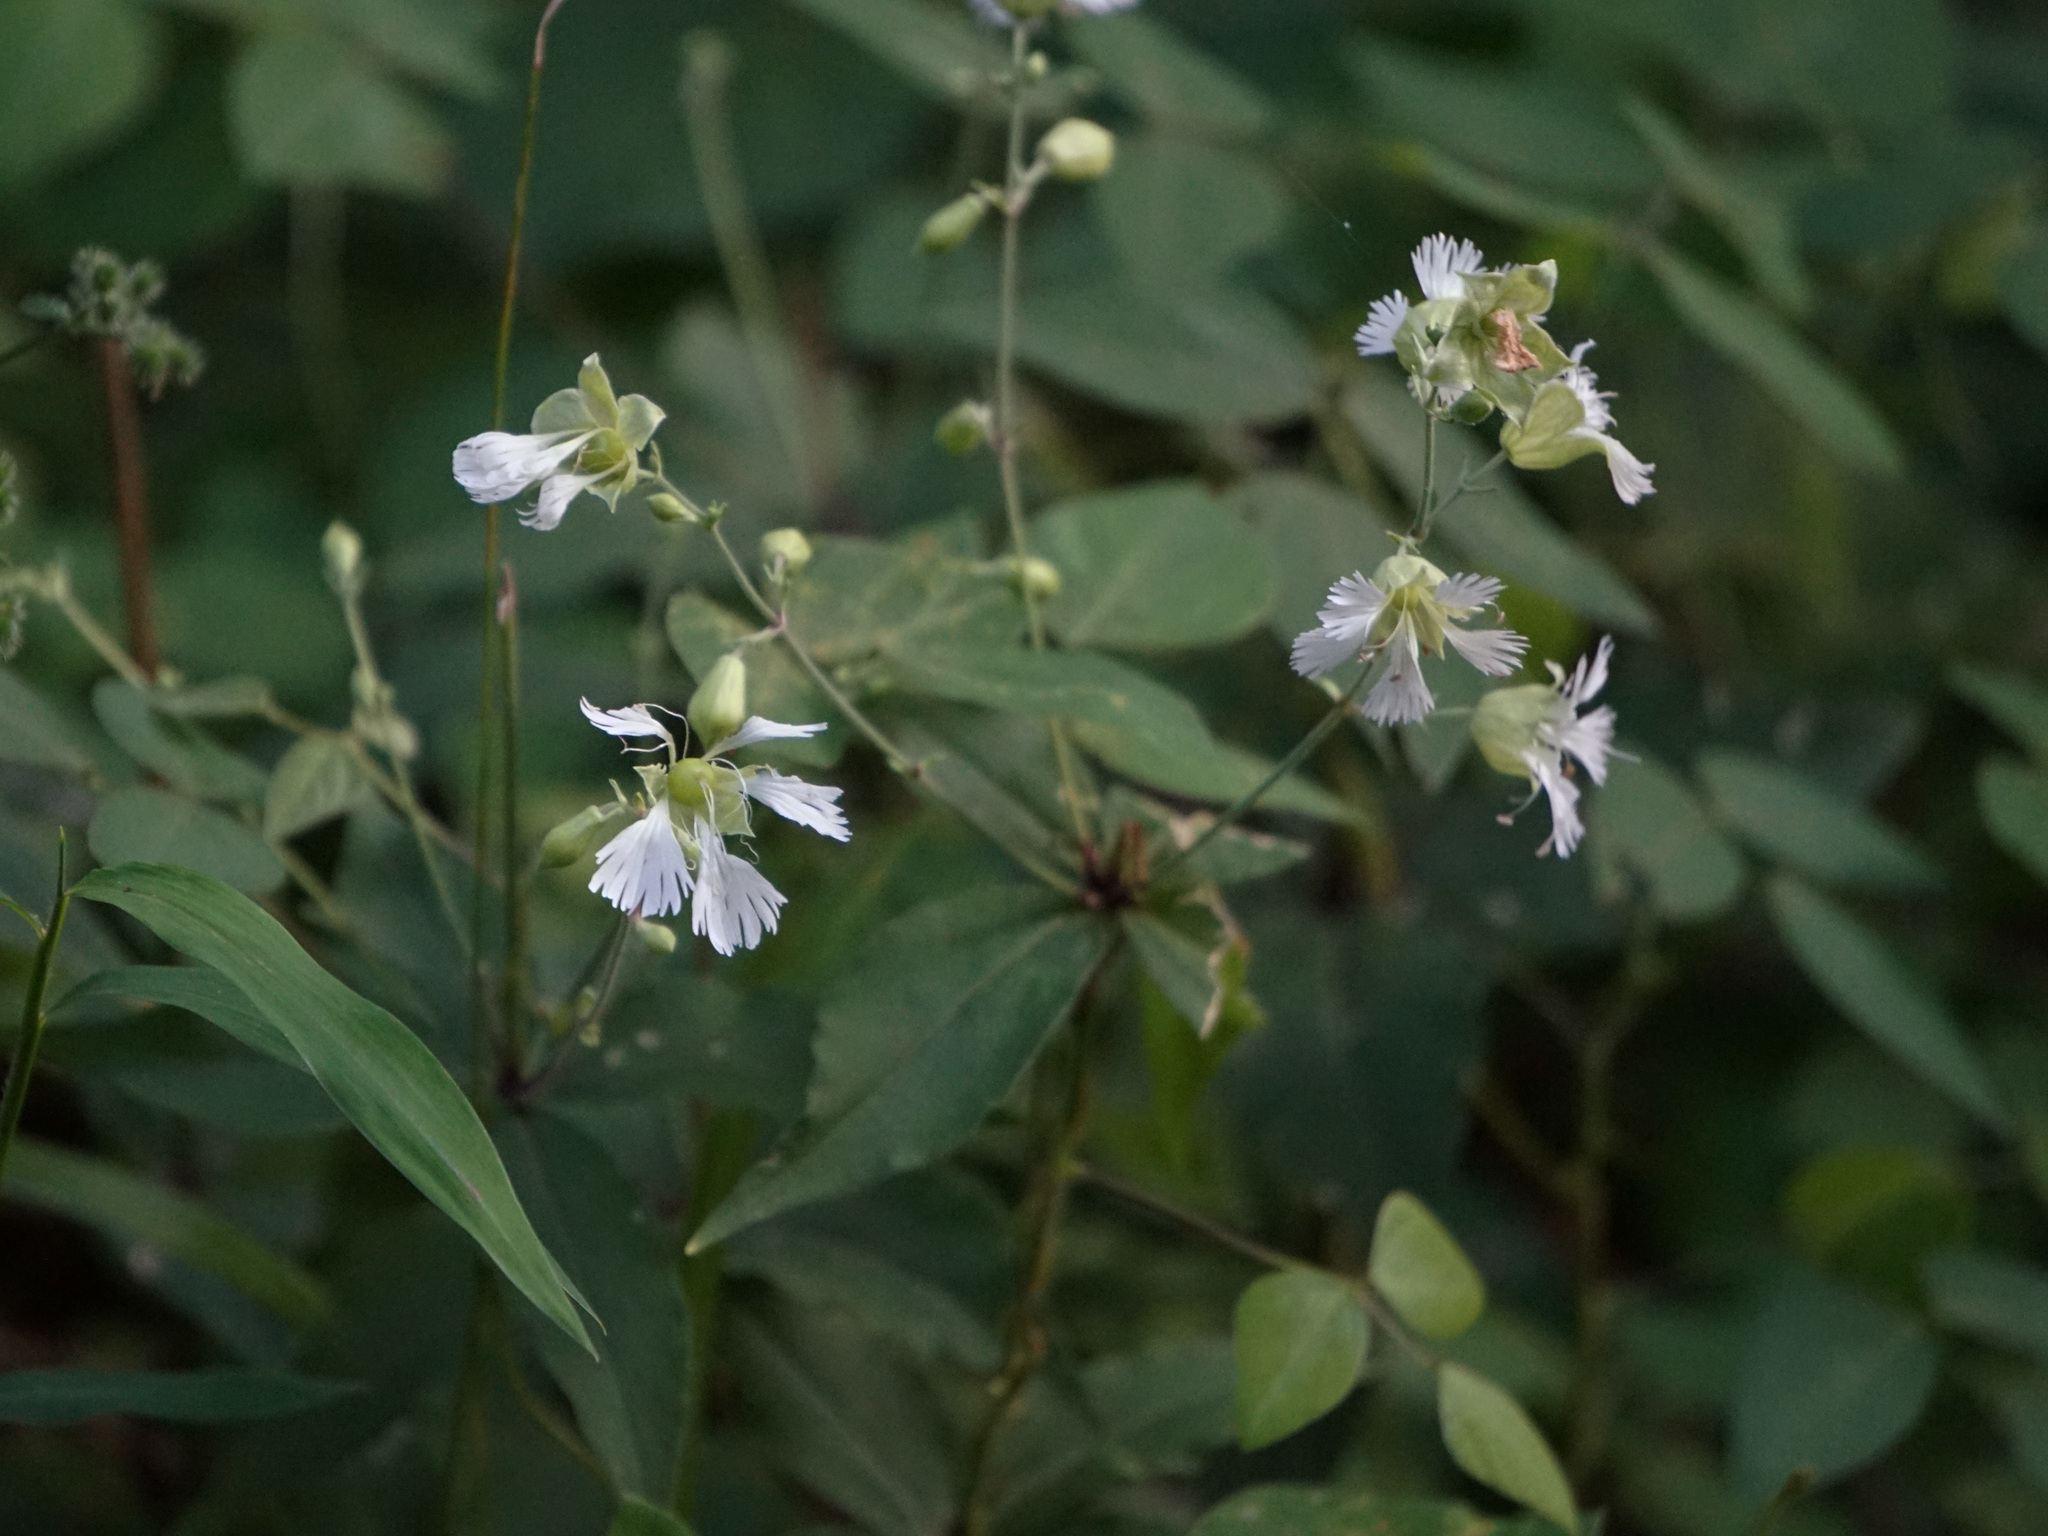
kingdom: Plantae
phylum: Tracheophyta
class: Magnoliopsida
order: Caryophyllales
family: Caryophyllaceae
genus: Silene
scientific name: Silene stellata
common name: Starry campion
